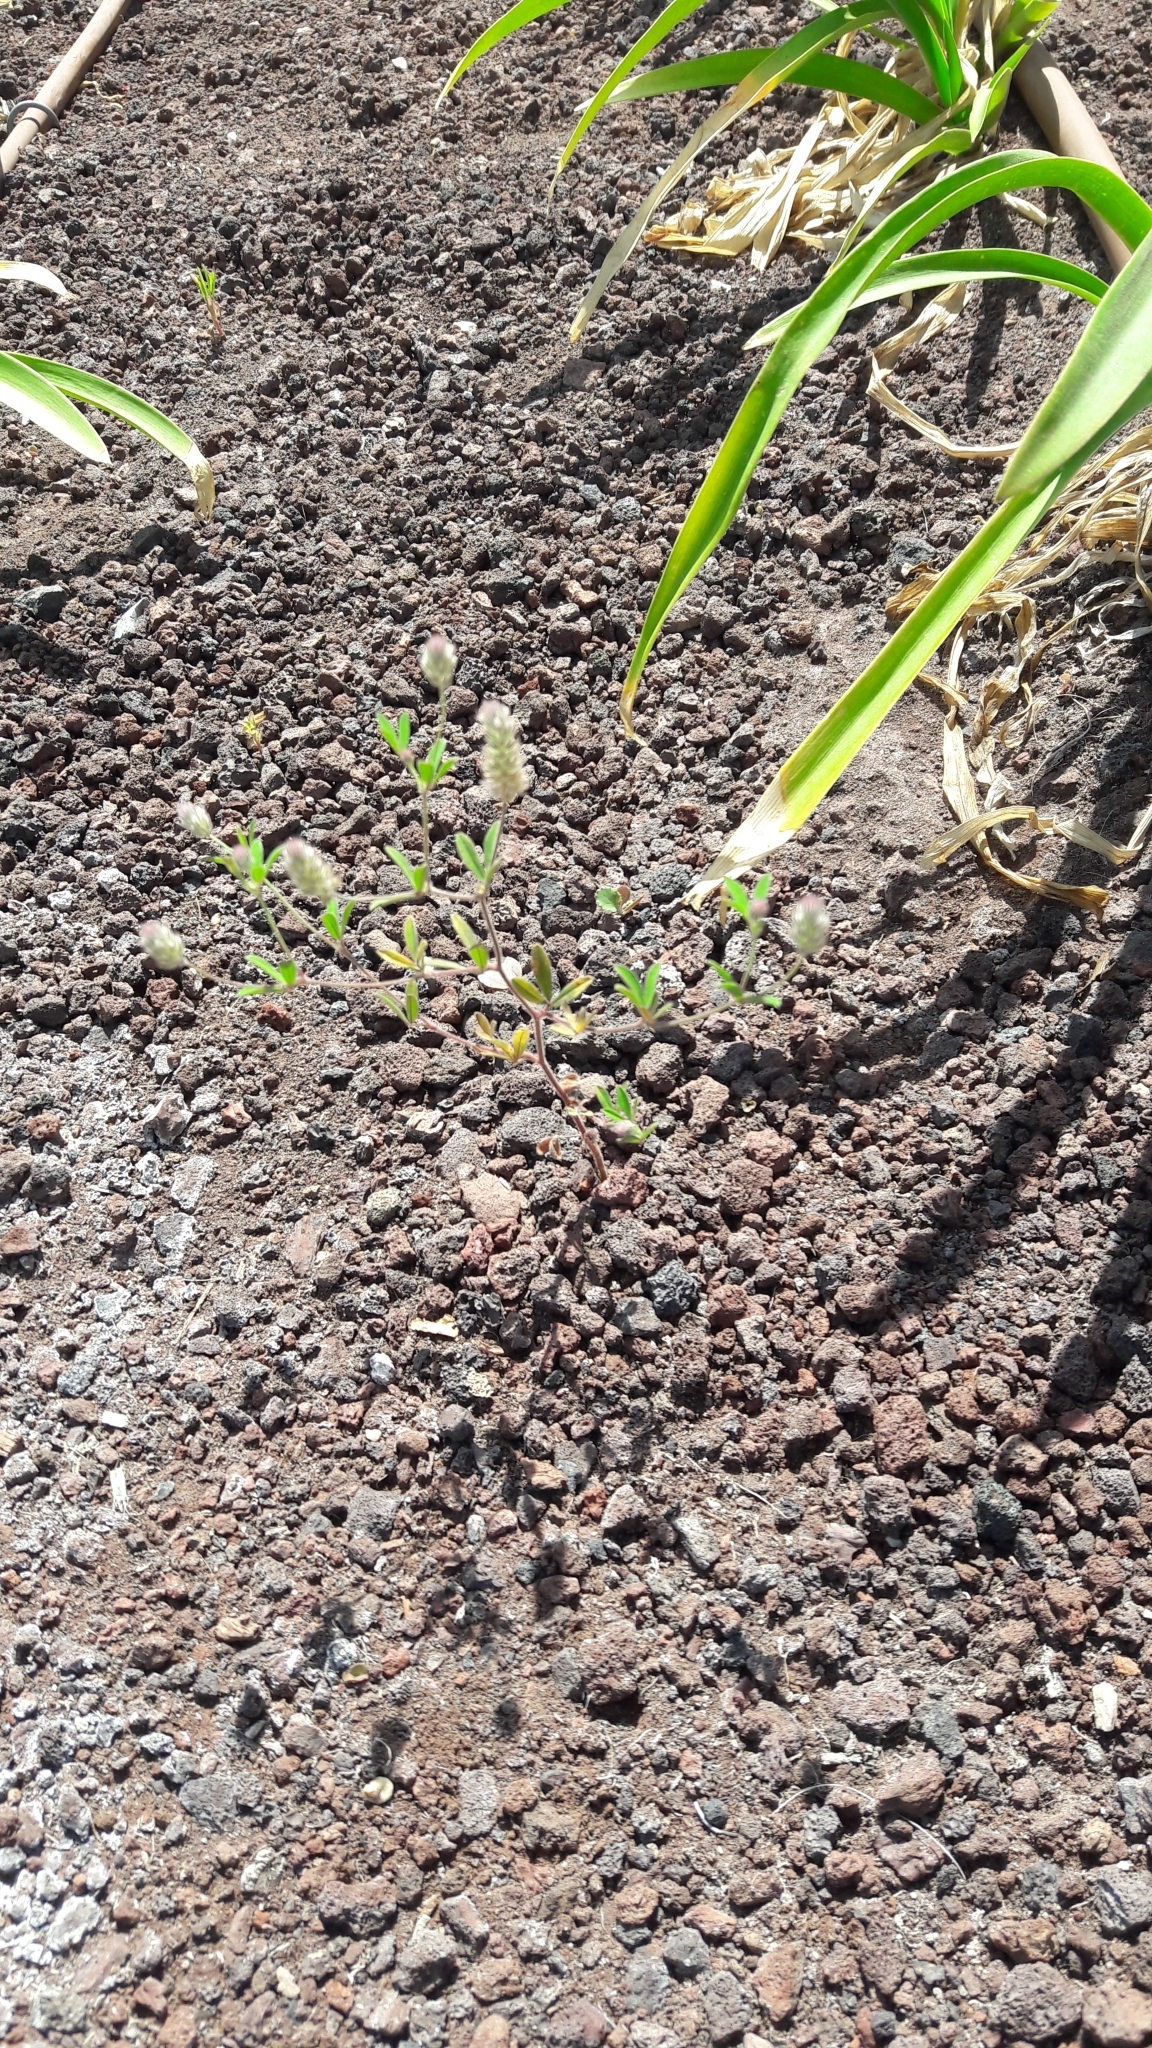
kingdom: Plantae
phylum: Tracheophyta
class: Magnoliopsida
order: Fabales
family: Fabaceae
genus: Trifolium
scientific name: Trifolium arvense
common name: Hare's-foot clover
